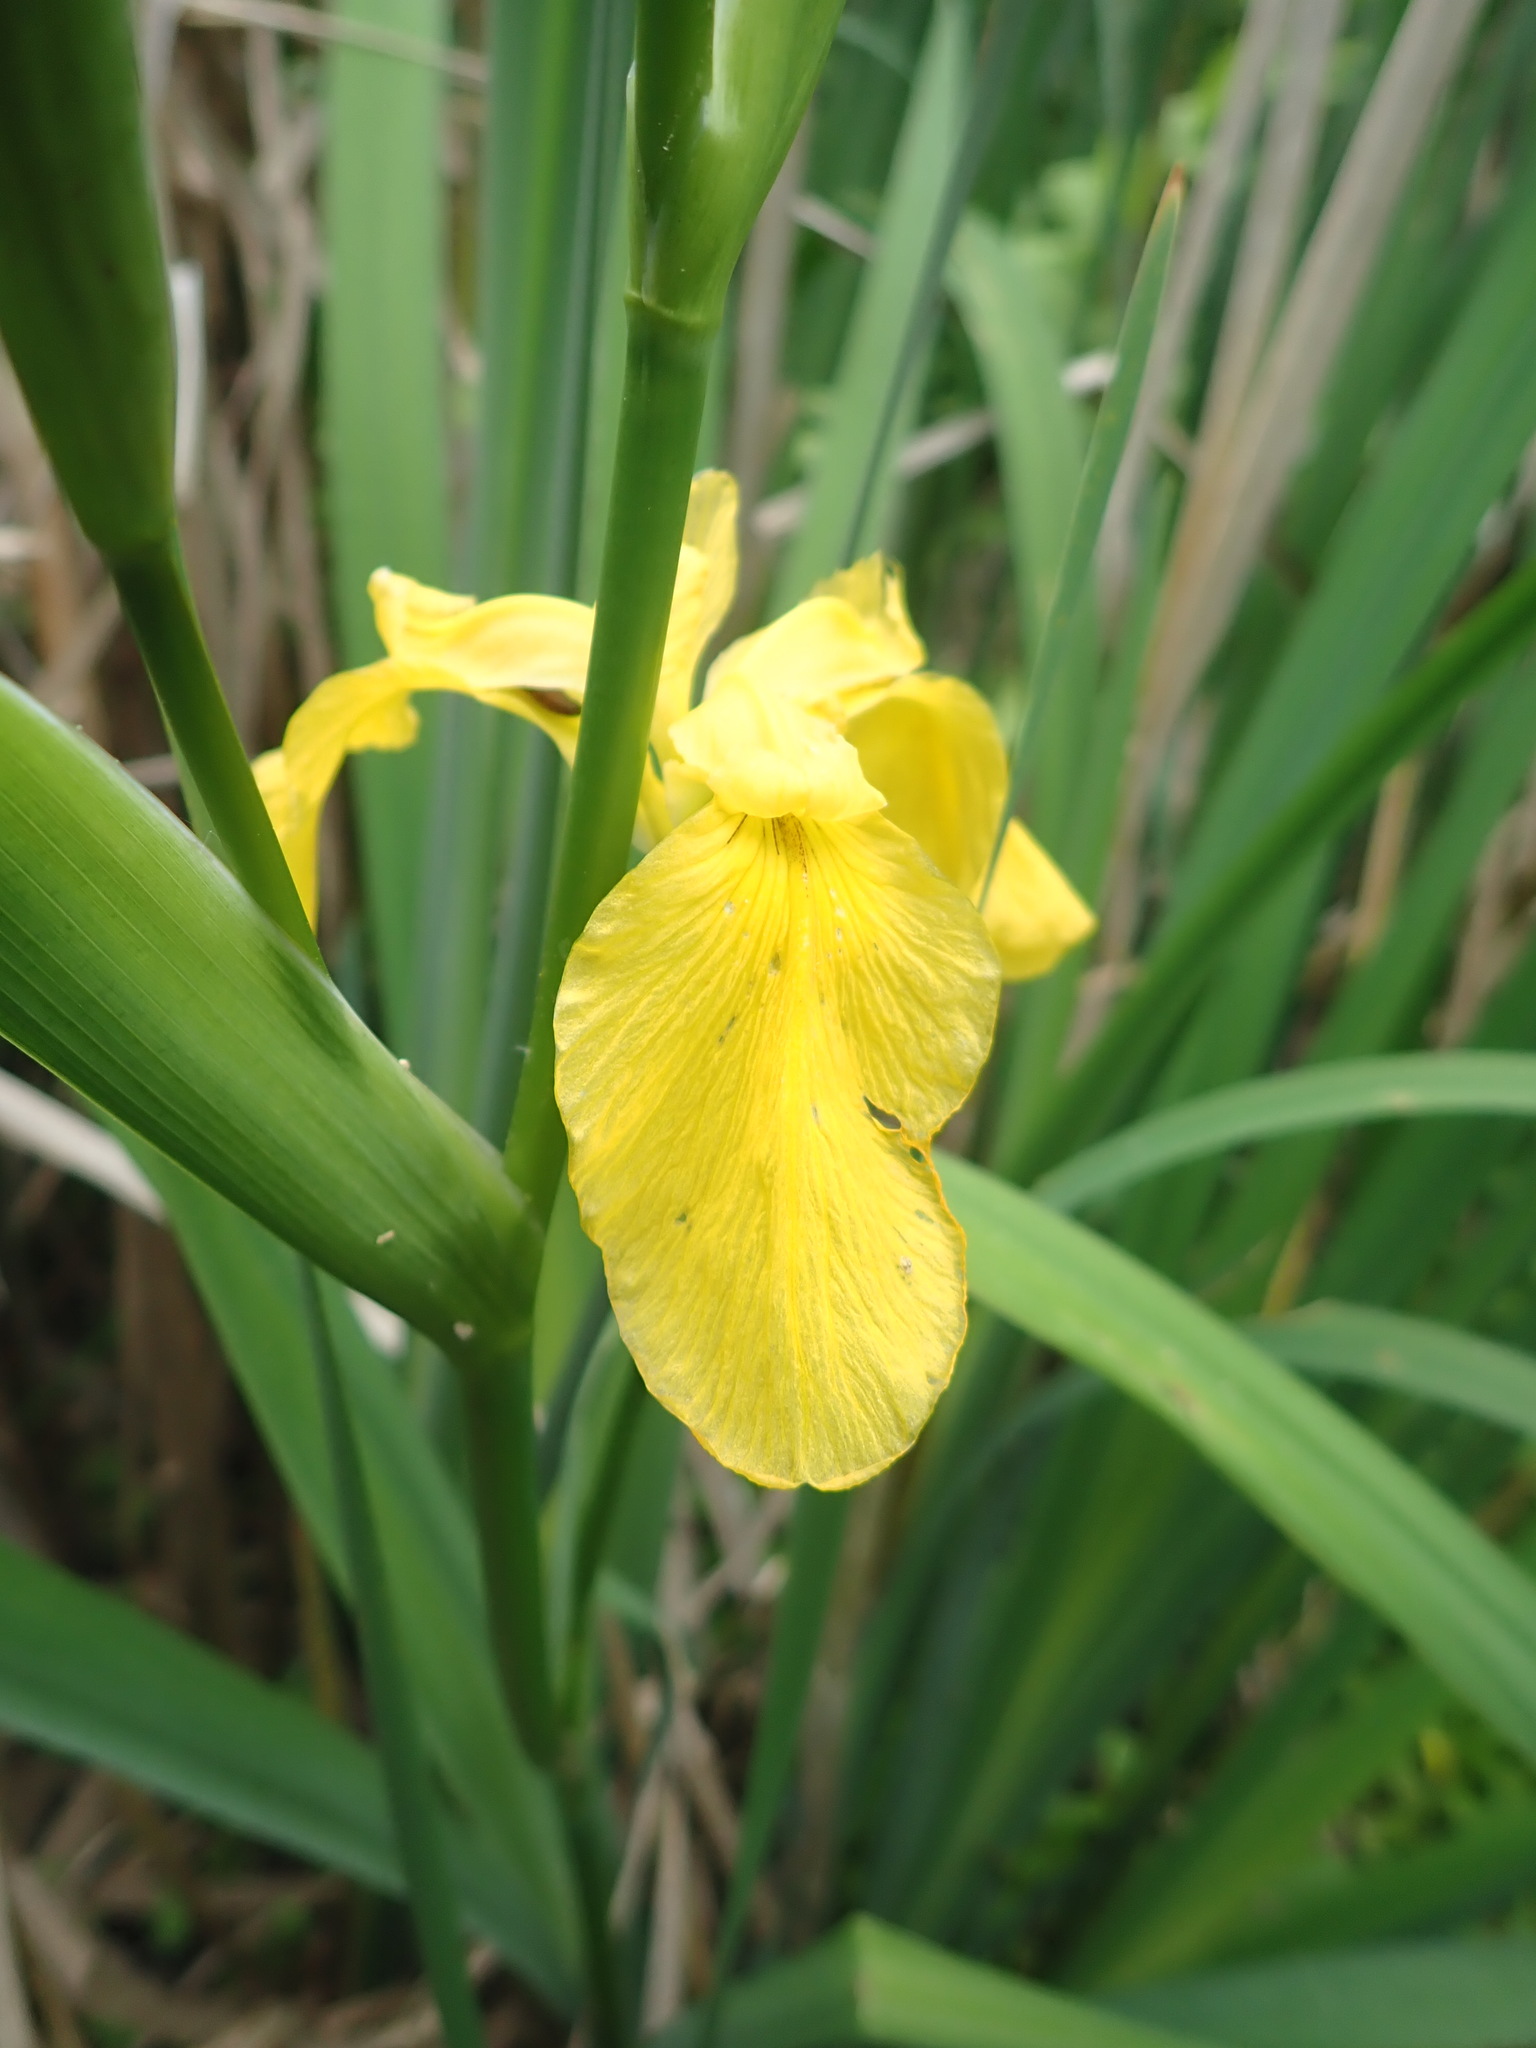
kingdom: Plantae
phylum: Tracheophyta
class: Liliopsida
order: Asparagales
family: Iridaceae
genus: Iris
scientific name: Iris pseudacorus
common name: Yellow flag
